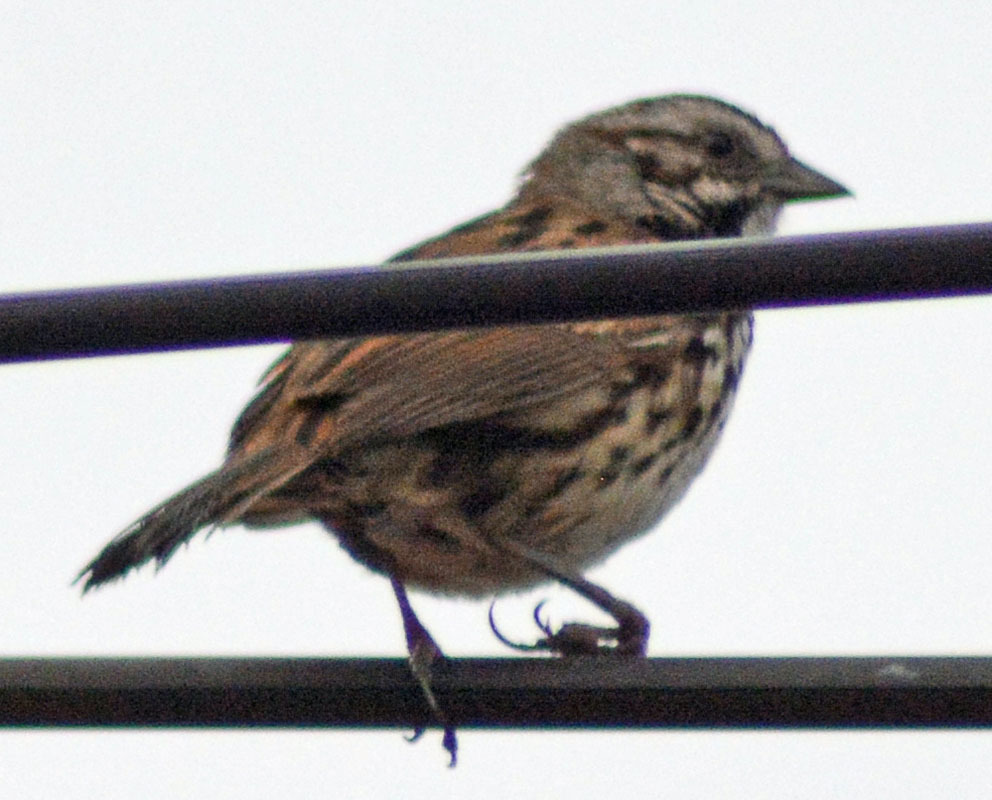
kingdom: Animalia
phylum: Chordata
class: Aves
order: Passeriformes
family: Passerellidae
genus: Melospiza
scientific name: Melospiza melodia
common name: Song sparrow
